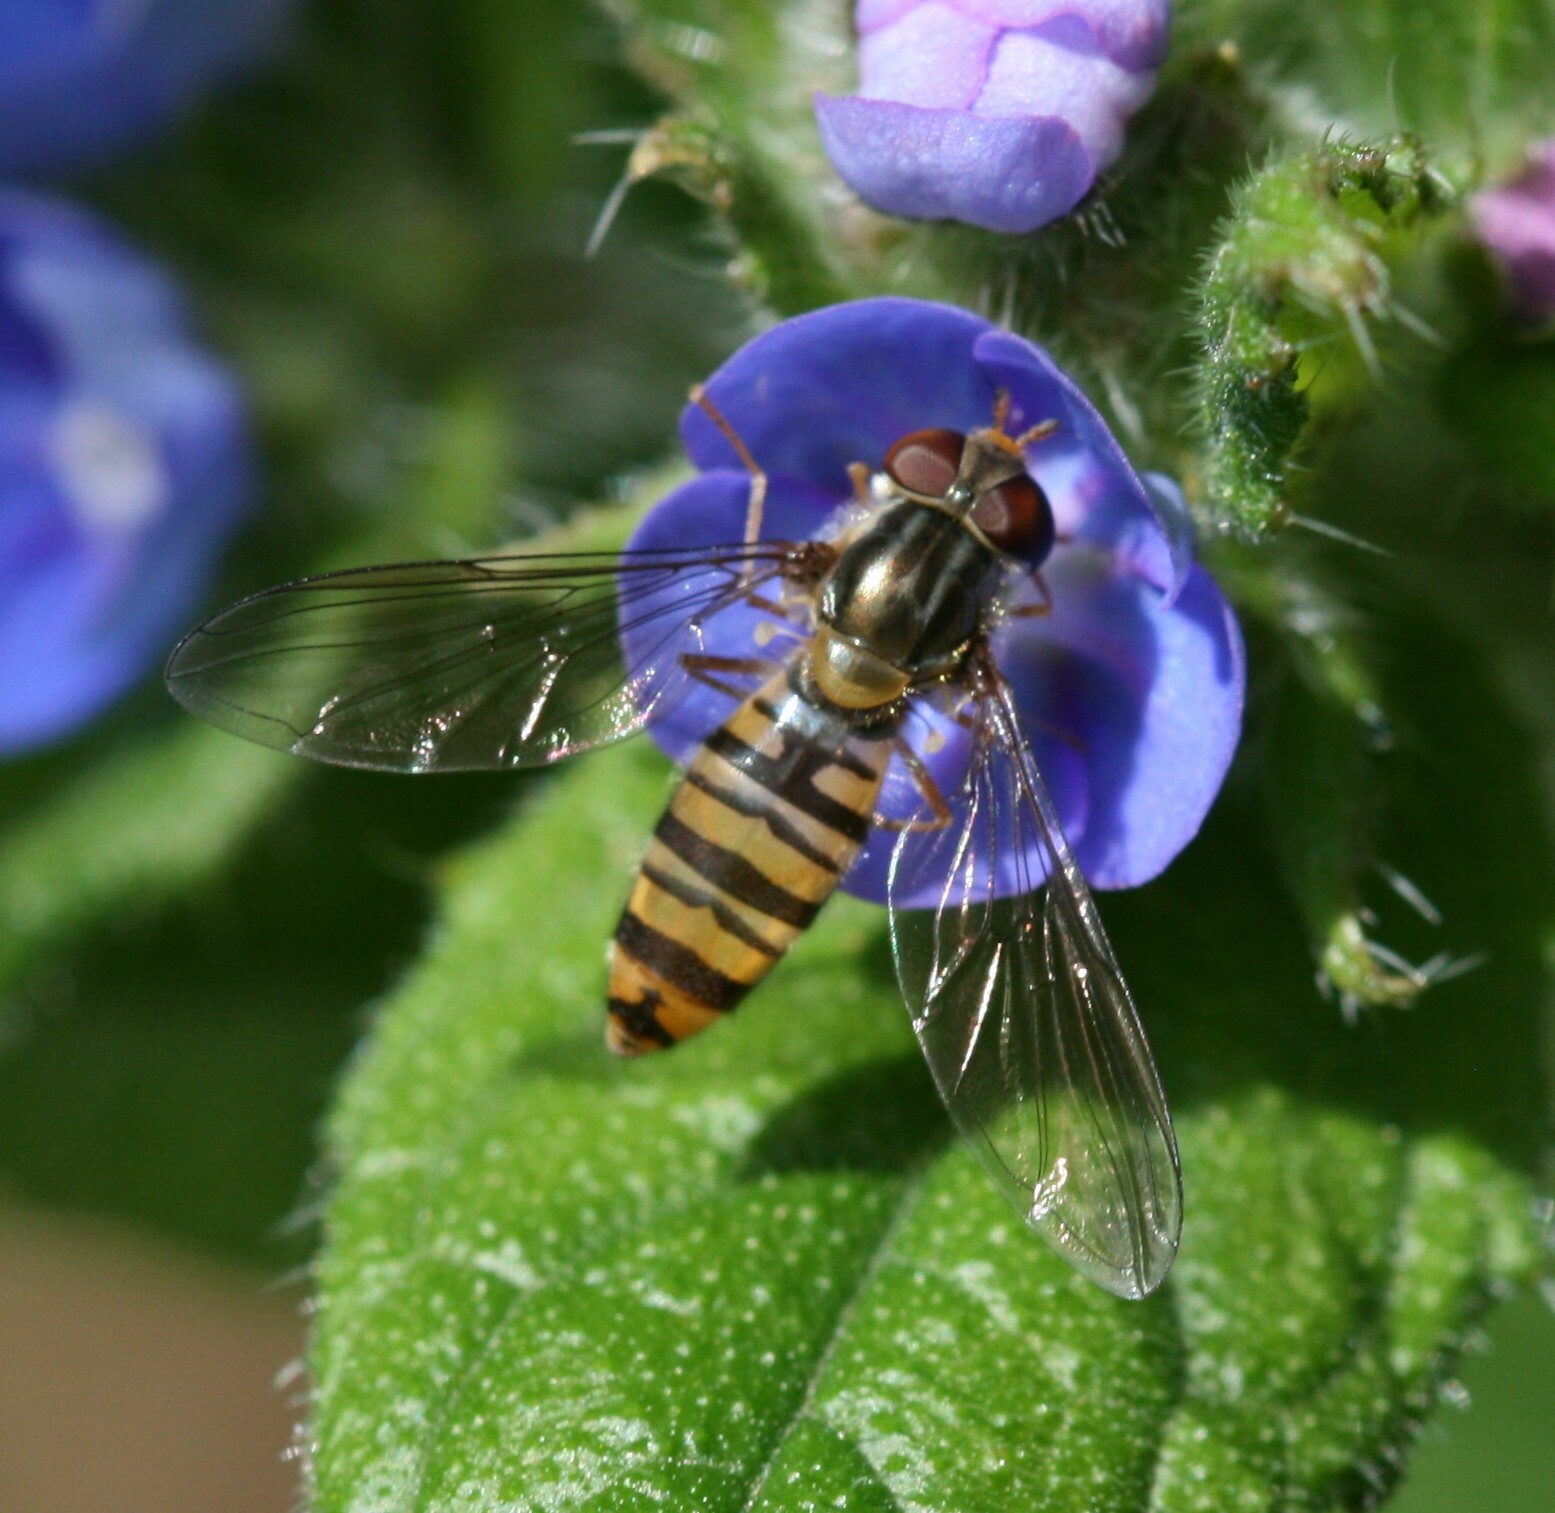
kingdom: Animalia
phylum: Arthropoda
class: Insecta
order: Diptera
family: Syrphidae
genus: Episyrphus
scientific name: Episyrphus balteatus
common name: Marmalade hoverfly
